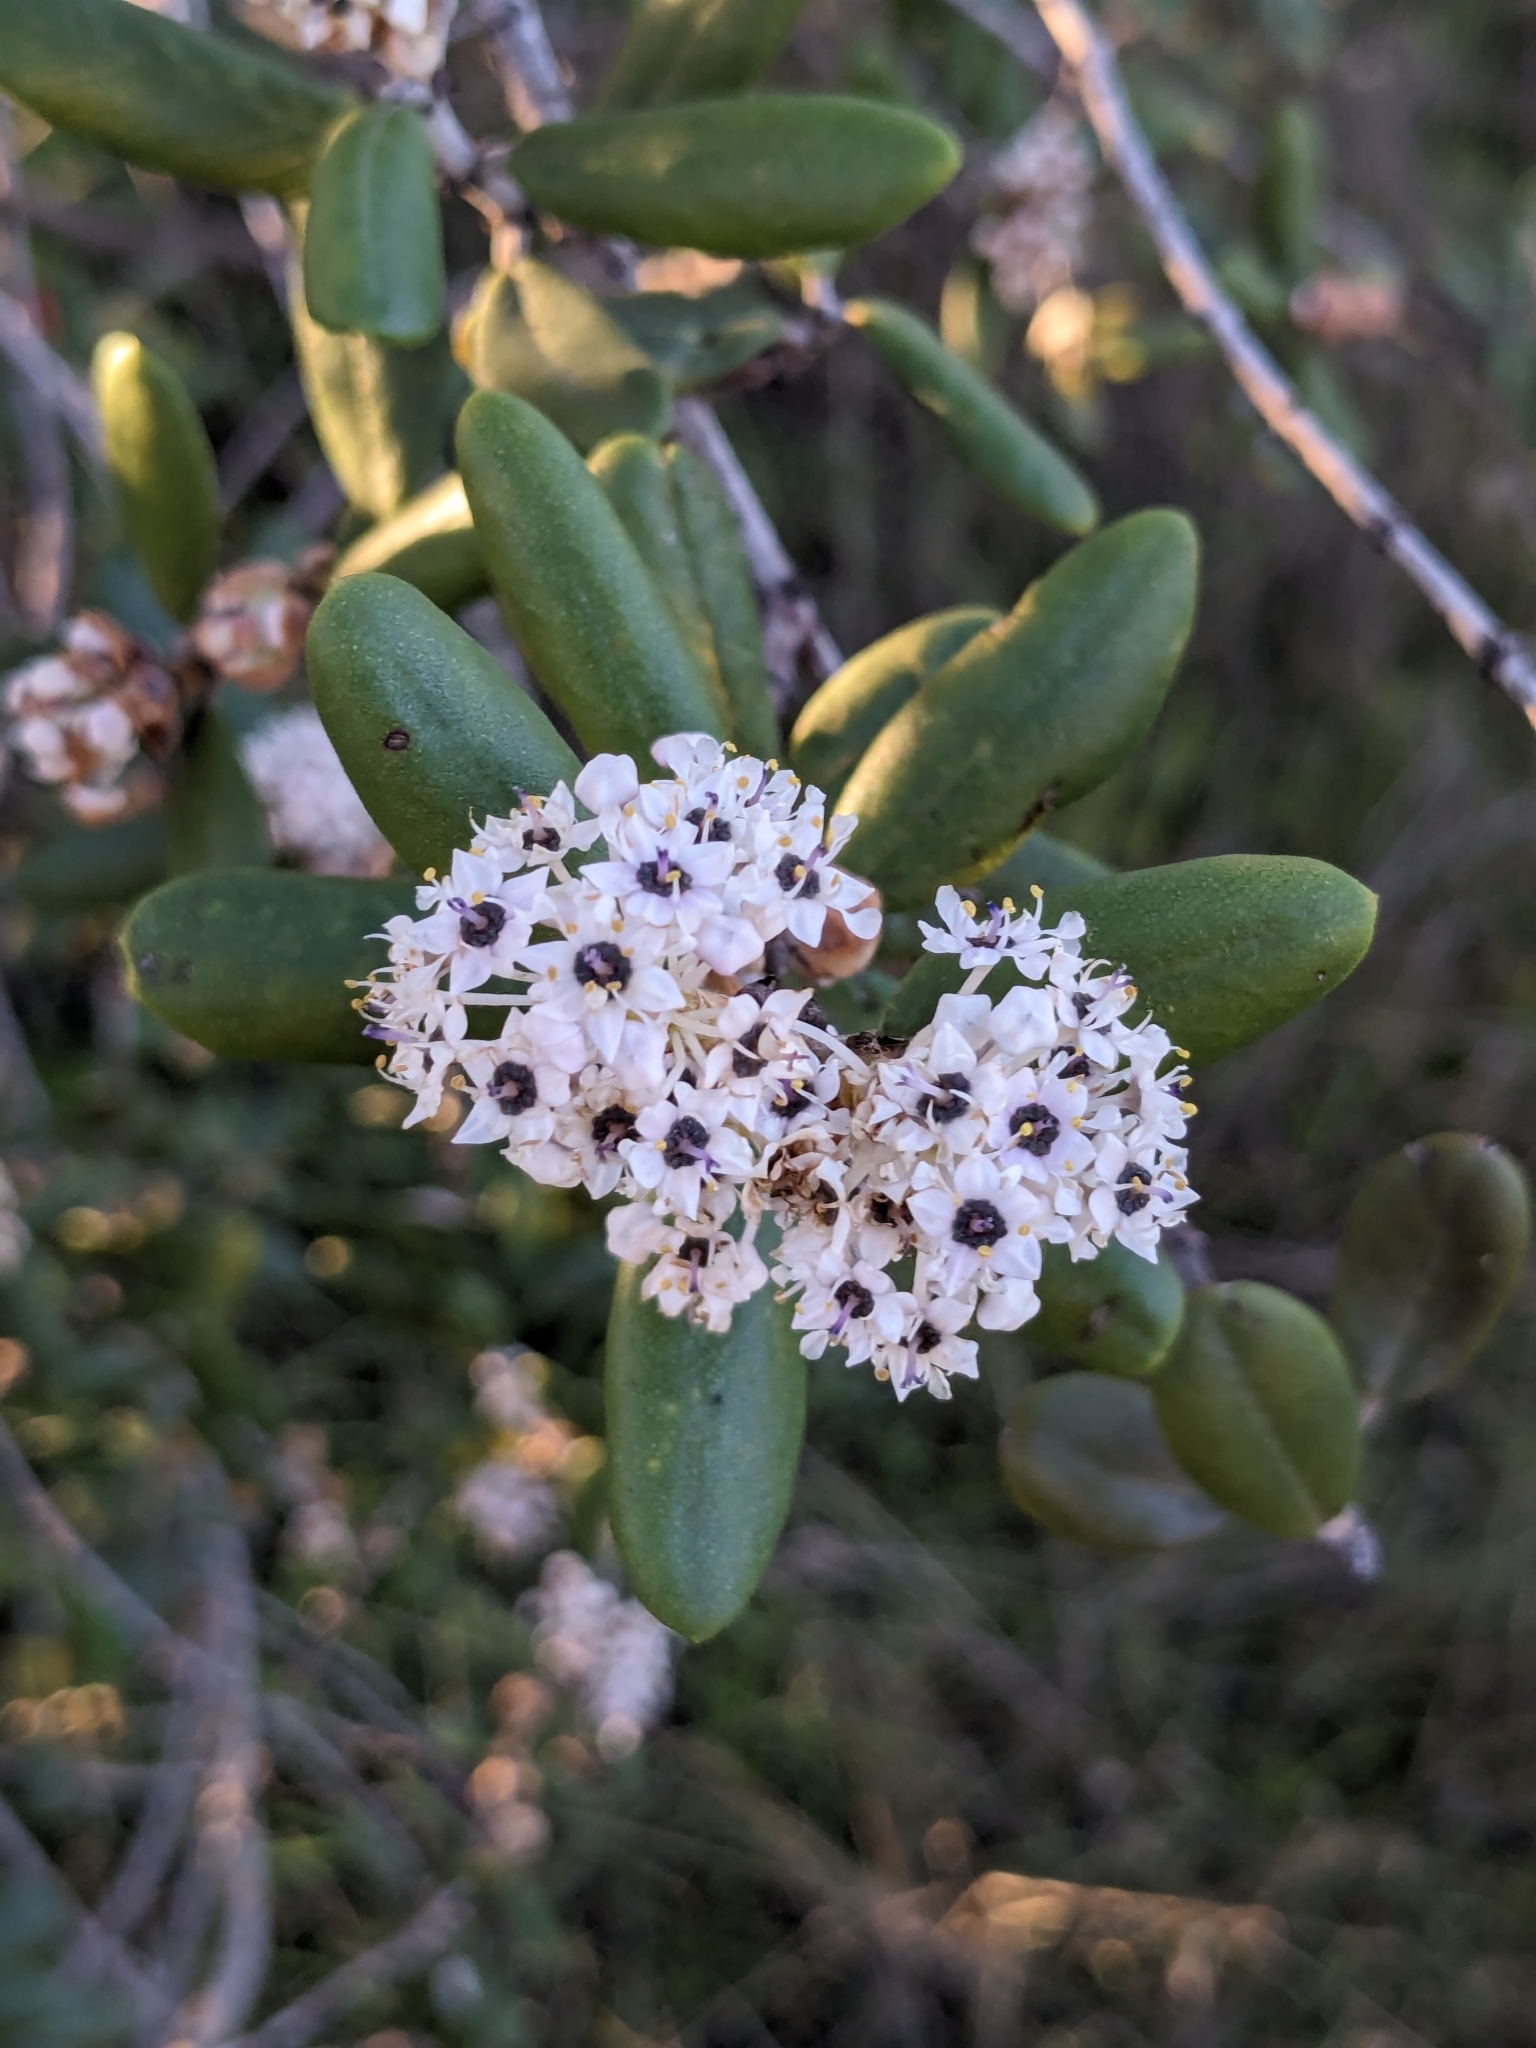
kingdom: Plantae
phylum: Tracheophyta
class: Magnoliopsida
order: Rosales
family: Rhamnaceae
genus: Ceanothus
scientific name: Ceanothus crassifolius
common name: Hoaryleaf ceanothus
